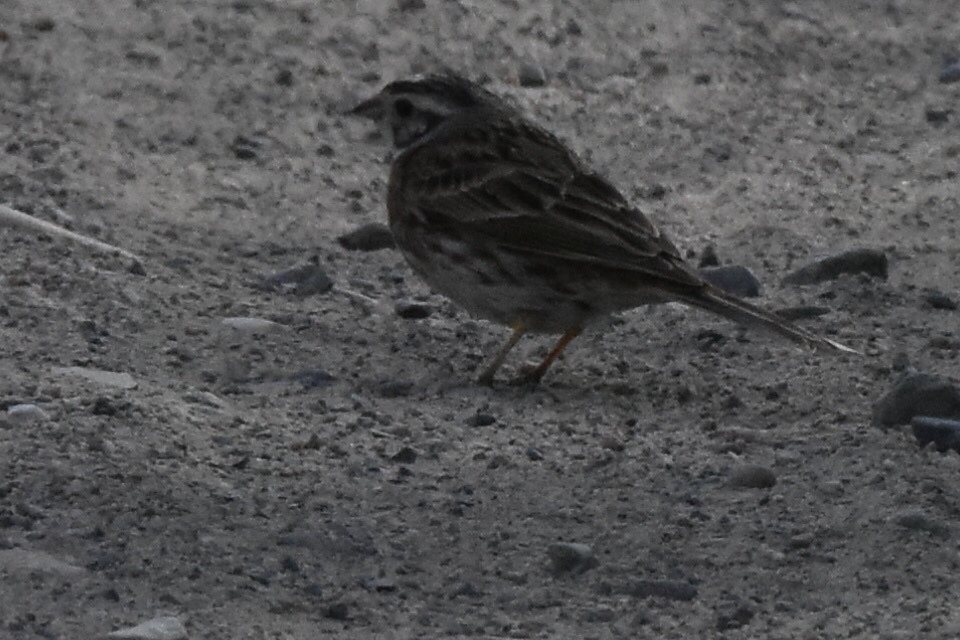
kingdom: Animalia
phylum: Chordata
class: Aves
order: Passeriformes
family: Emberizidae
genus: Emberiza
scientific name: Emberiza leucocephalos
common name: Pine bunting
